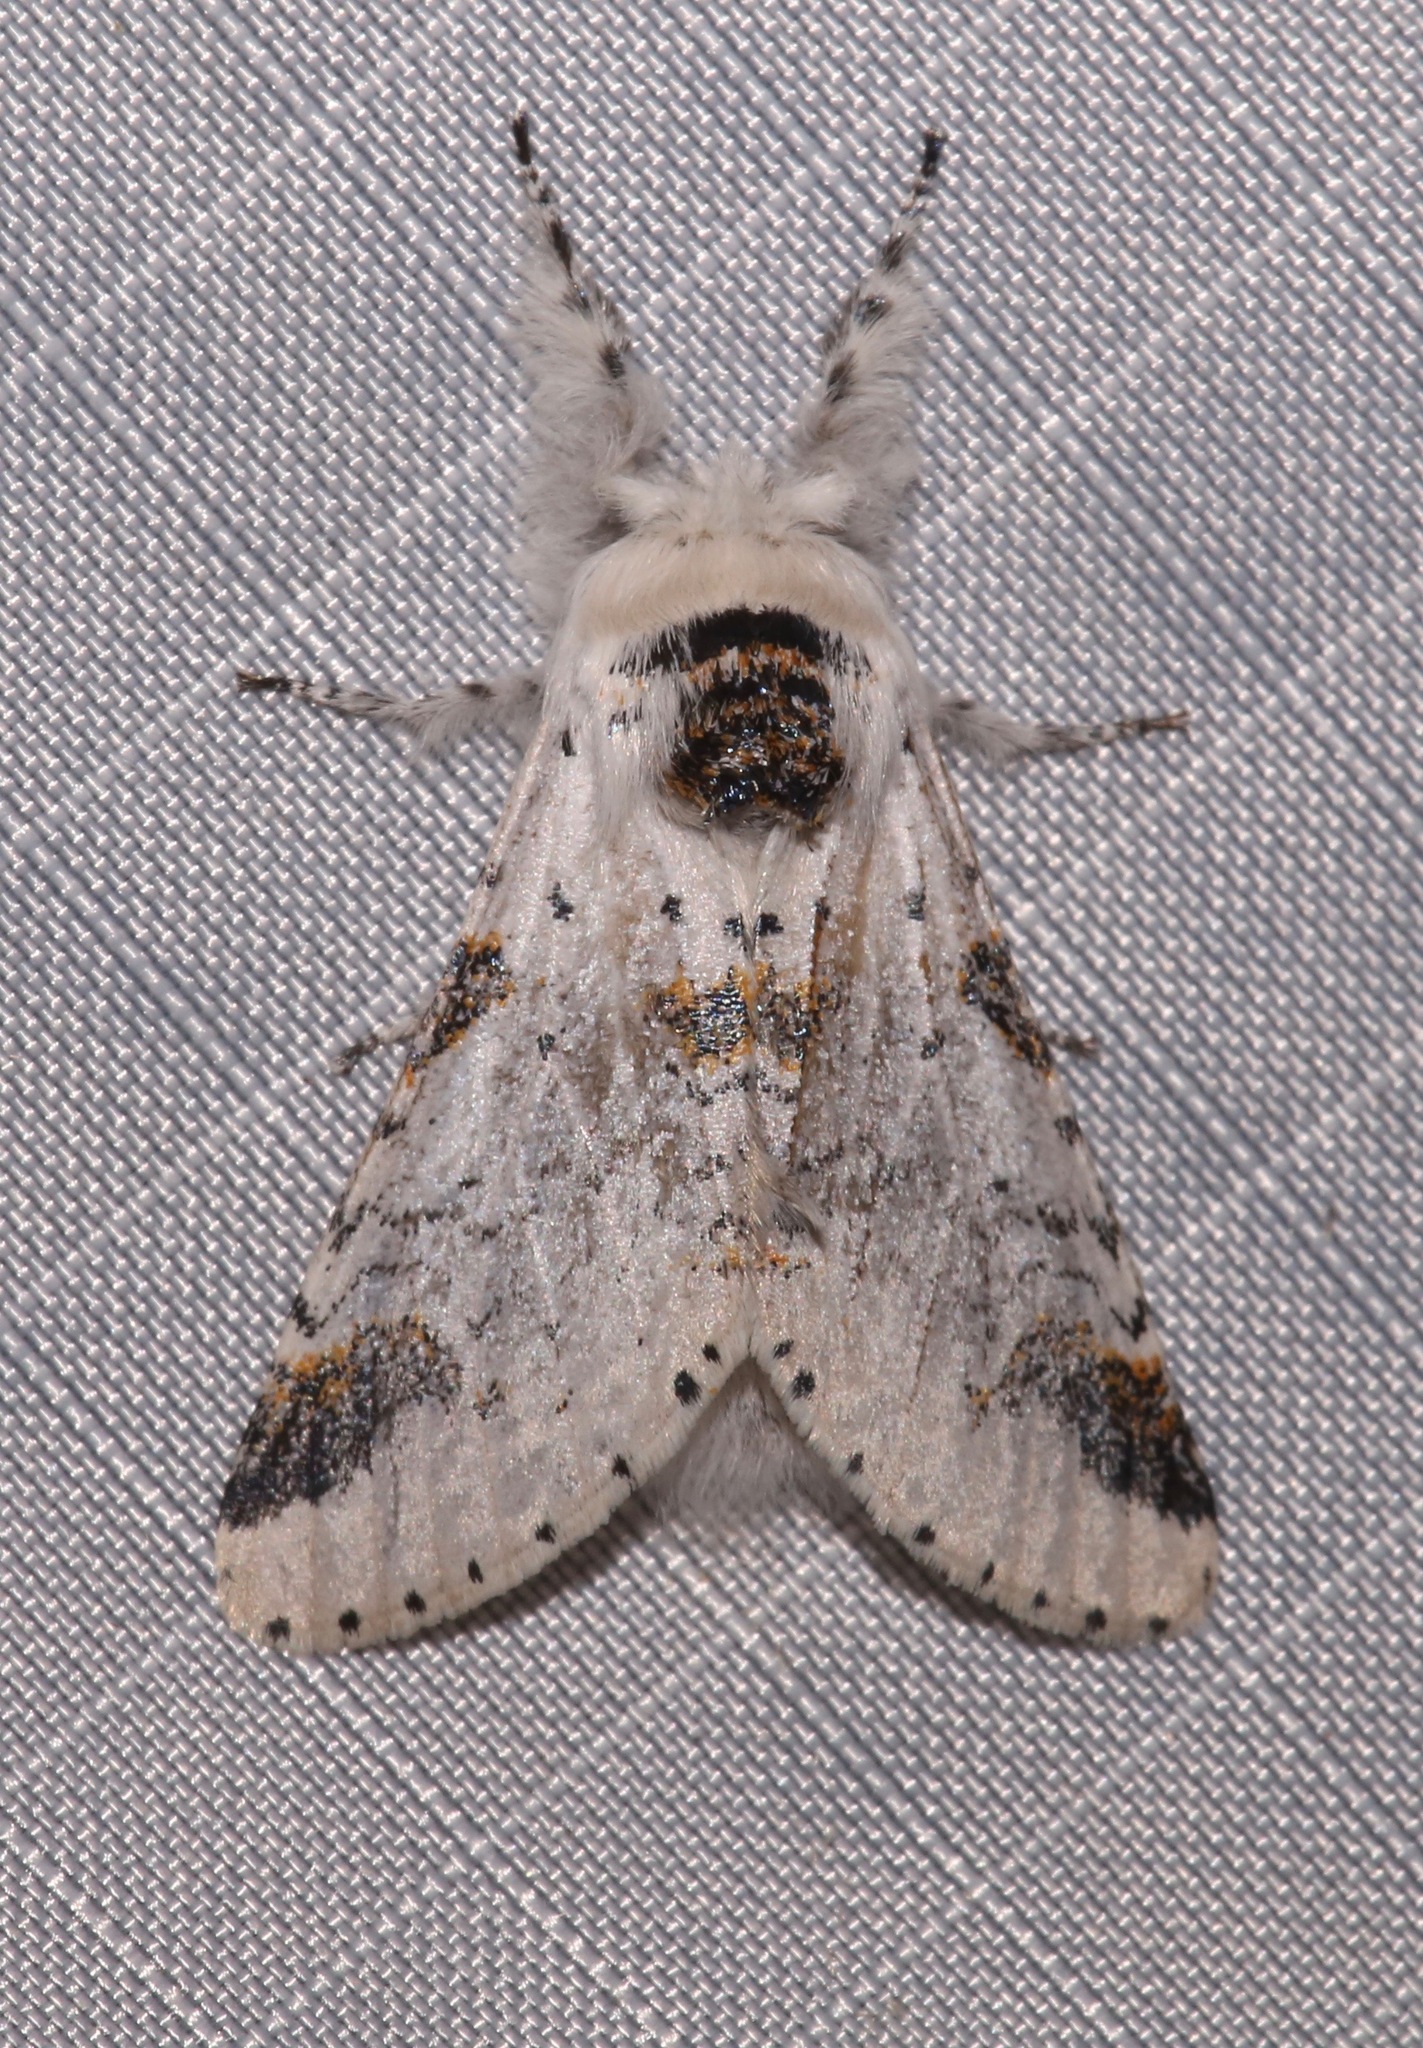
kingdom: Animalia
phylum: Arthropoda
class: Insecta
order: Lepidoptera
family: Notodontidae
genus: Furcula
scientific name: Furcula scolopendrina
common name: Zigzag furcula moth
